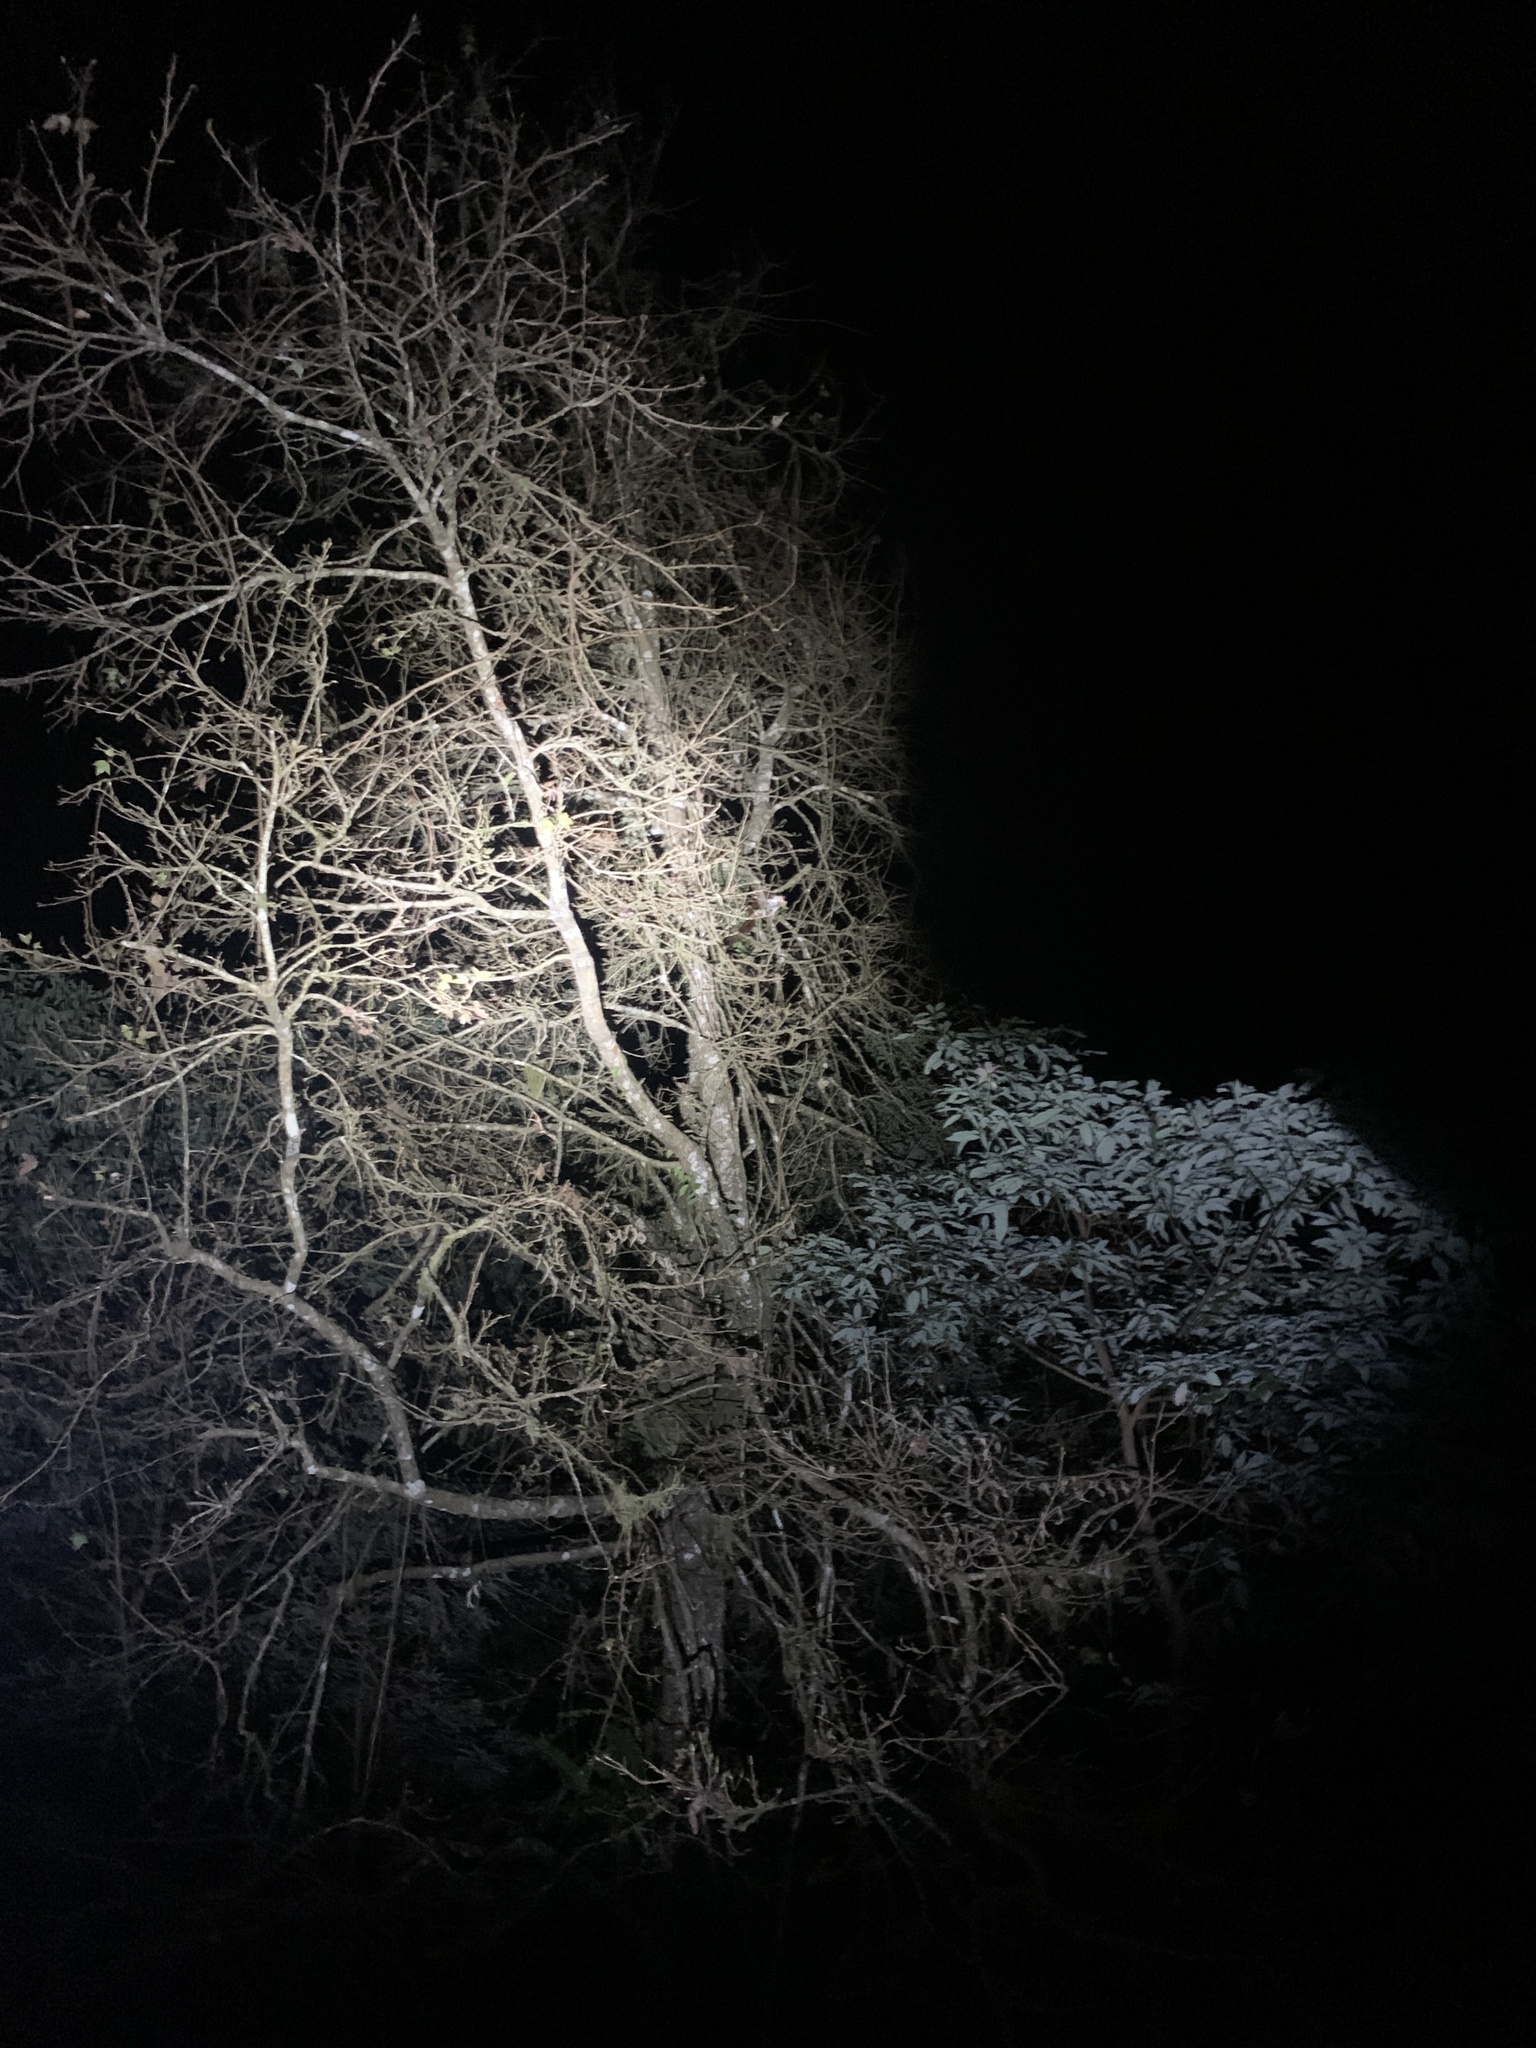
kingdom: Animalia
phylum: Chordata
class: Mammalia
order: Rodentia
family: Sciuridae
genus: Petaurista
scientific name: Petaurista lena
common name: Taiwan giant flying squirrel
